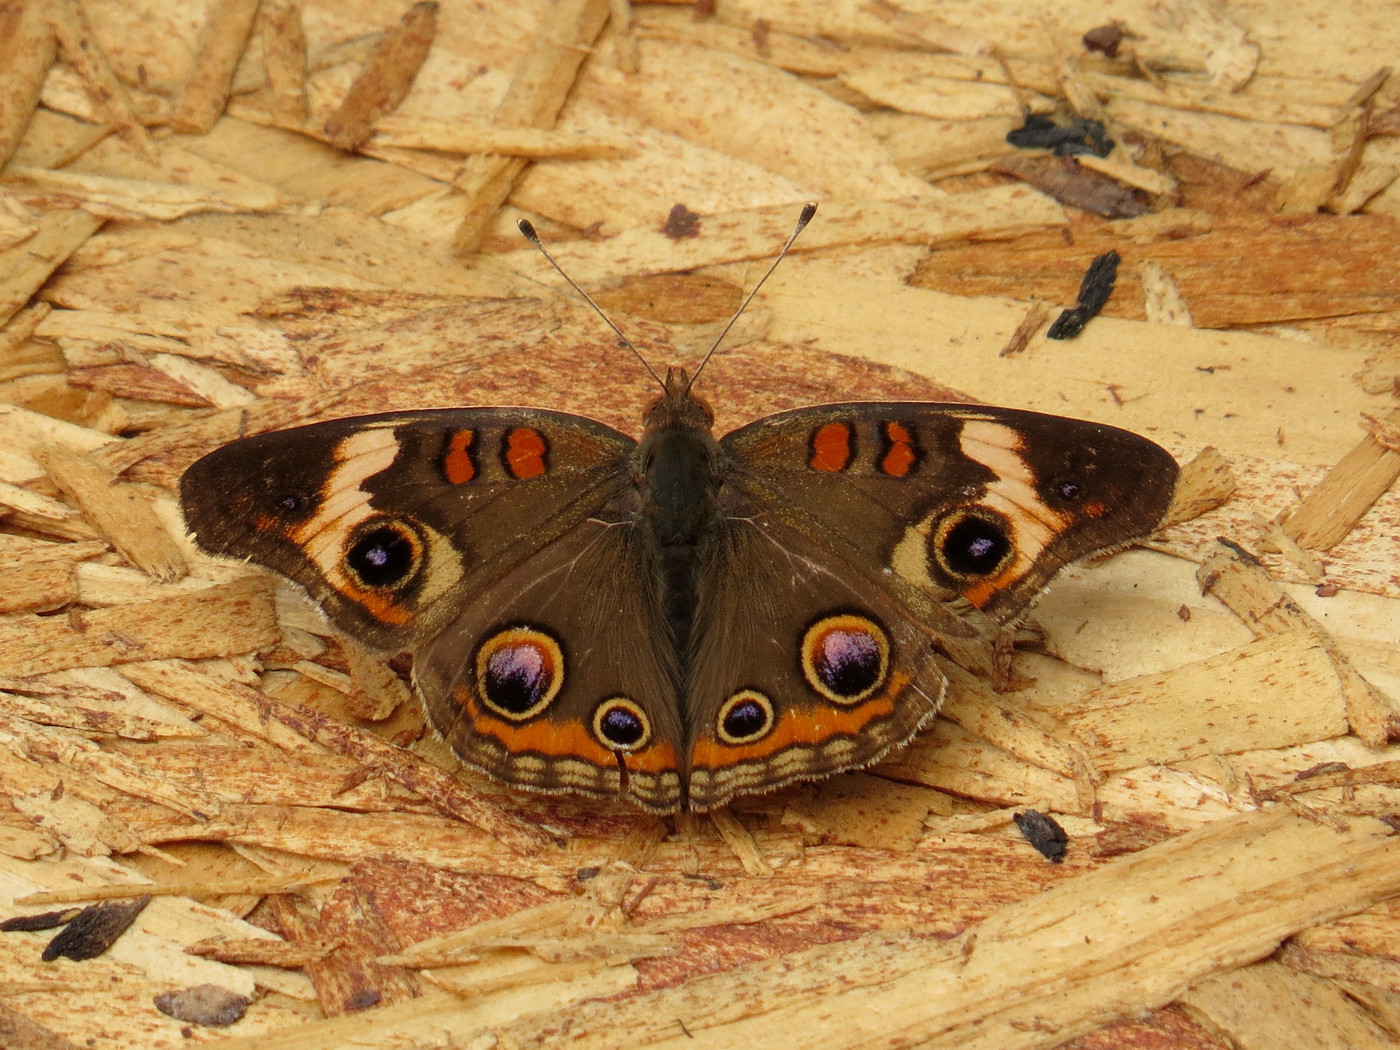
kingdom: Animalia
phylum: Arthropoda
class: Insecta
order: Lepidoptera
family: Nymphalidae
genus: Junonia
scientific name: Junonia coenia
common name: Common buckeye
